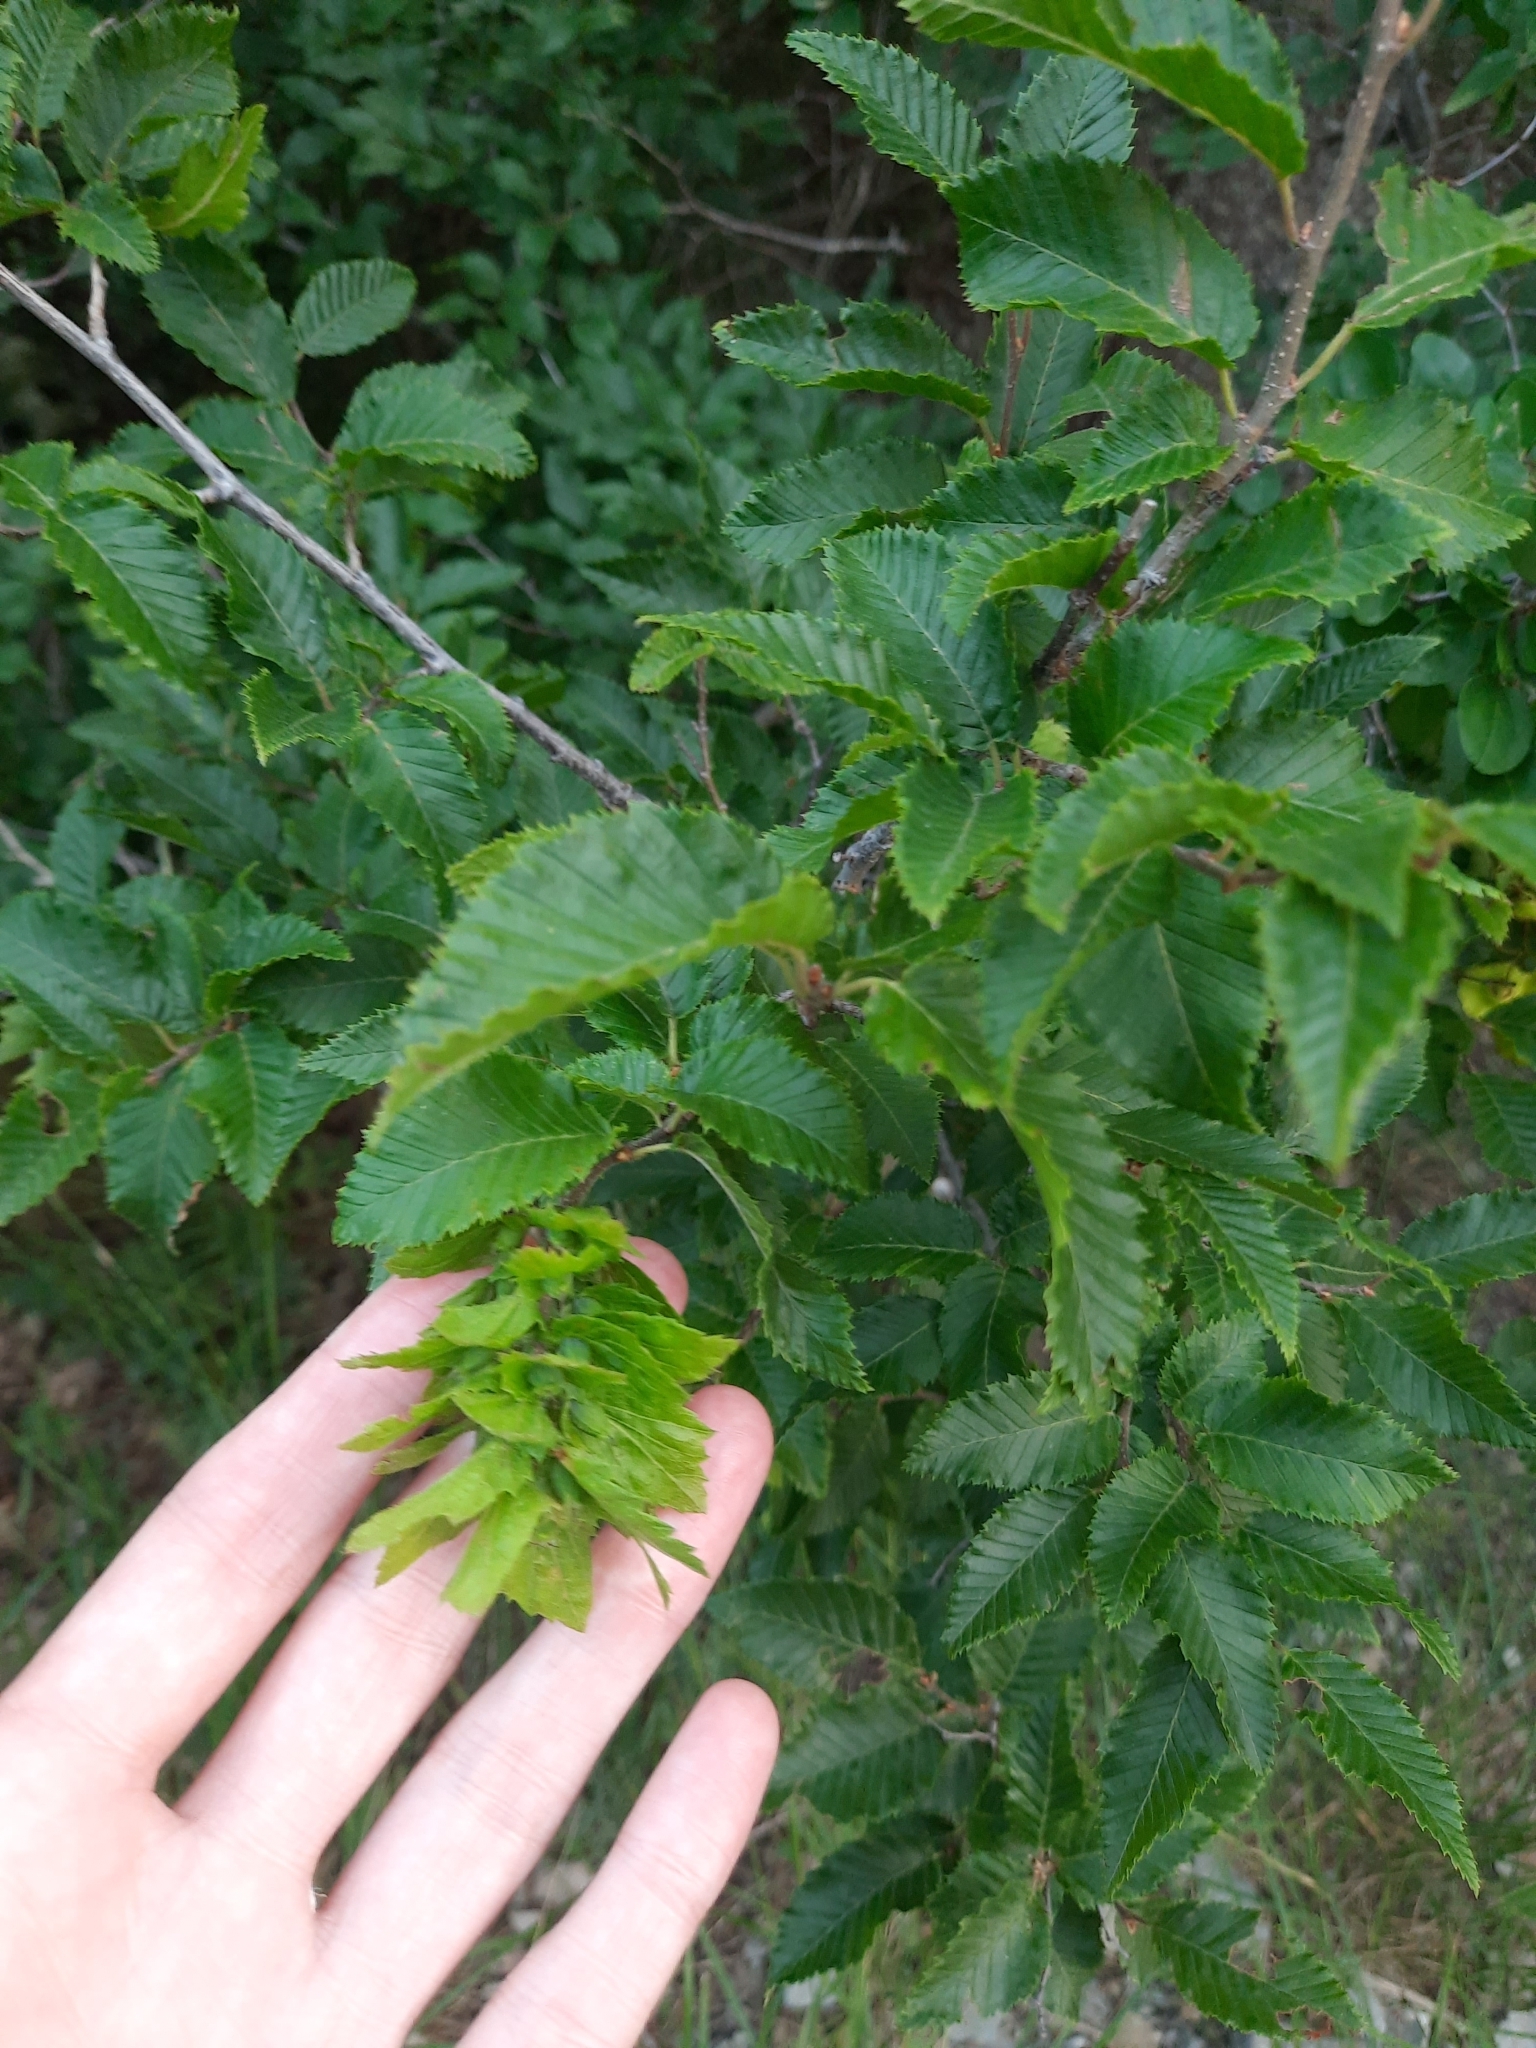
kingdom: Plantae
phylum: Tracheophyta
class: Magnoliopsida
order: Fagales
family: Betulaceae
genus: Carpinus
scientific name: Carpinus orientalis
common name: Eastern hornbeam
